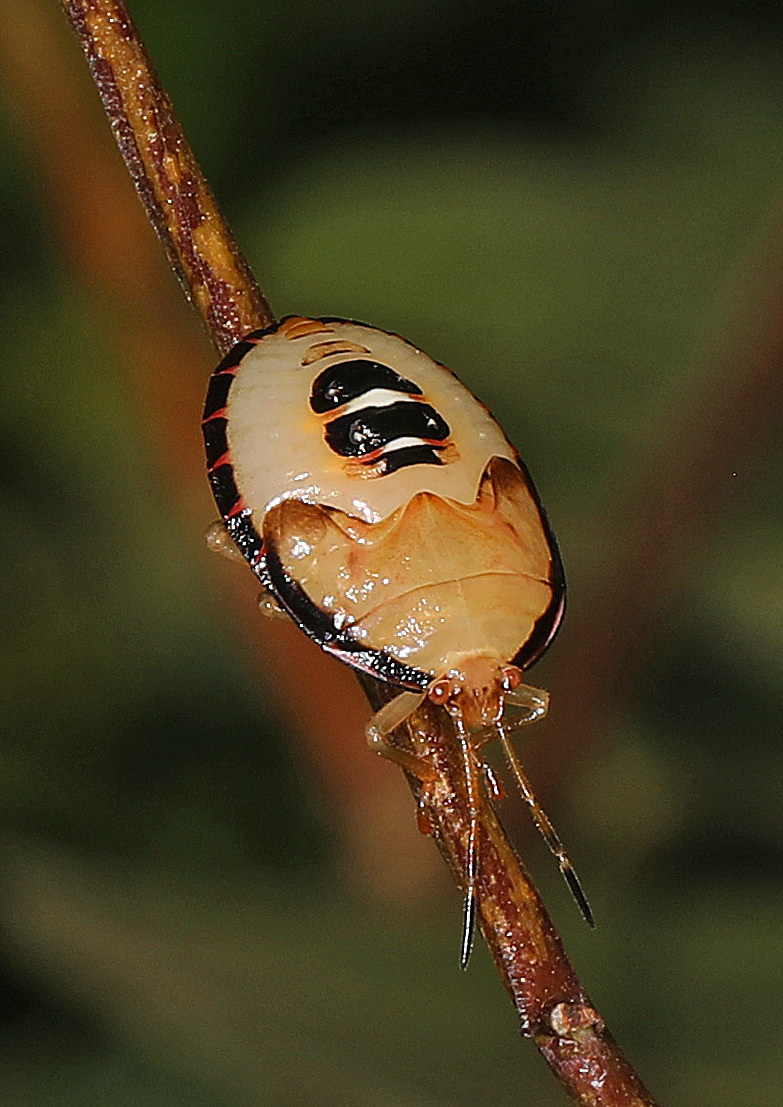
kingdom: Animalia
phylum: Arthropoda
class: Insecta
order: Hemiptera
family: Pentatomidae
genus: Edessa
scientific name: Edessa bifida
